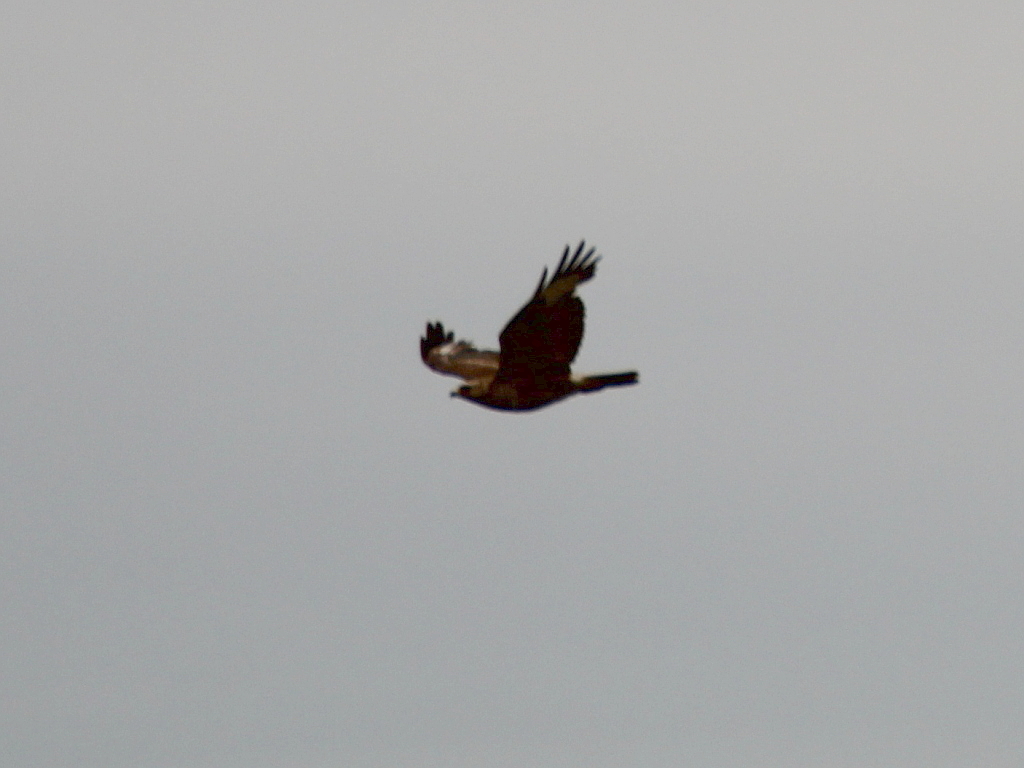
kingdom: Animalia
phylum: Chordata
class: Aves
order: Accipitriformes
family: Accipitridae
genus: Buteo
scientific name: Buteo buteo
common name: Common buzzard
